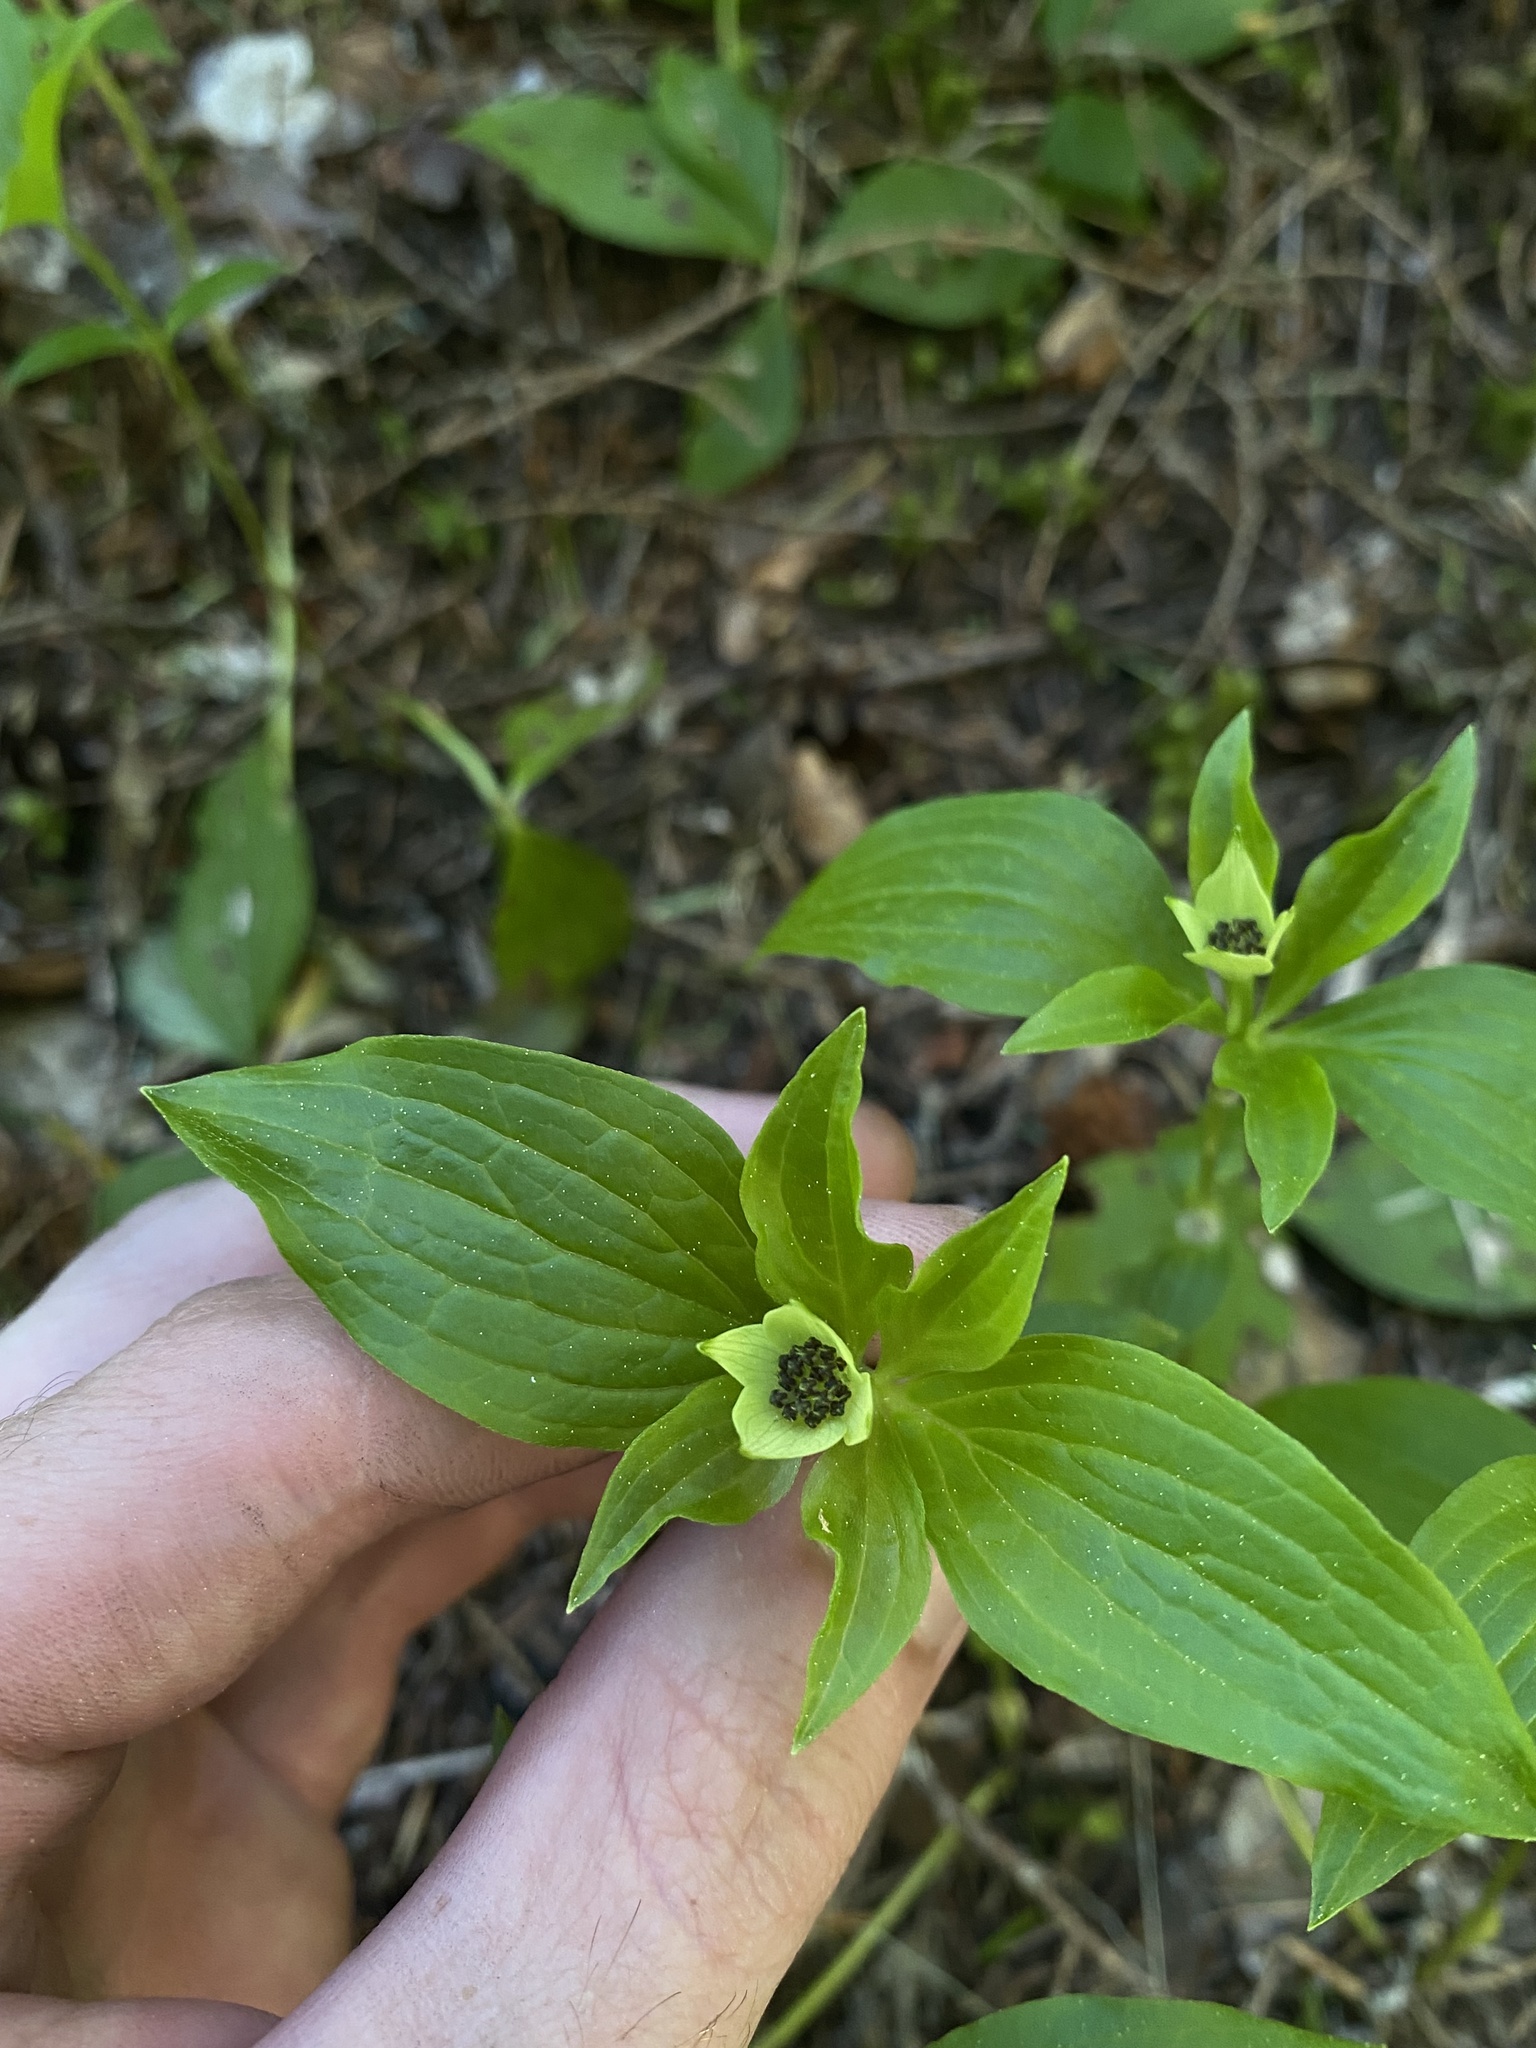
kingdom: Plantae
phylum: Tracheophyta
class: Magnoliopsida
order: Cornales
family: Cornaceae
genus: Cornus
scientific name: Cornus unalaschkensis
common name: Alaska bunchberry
